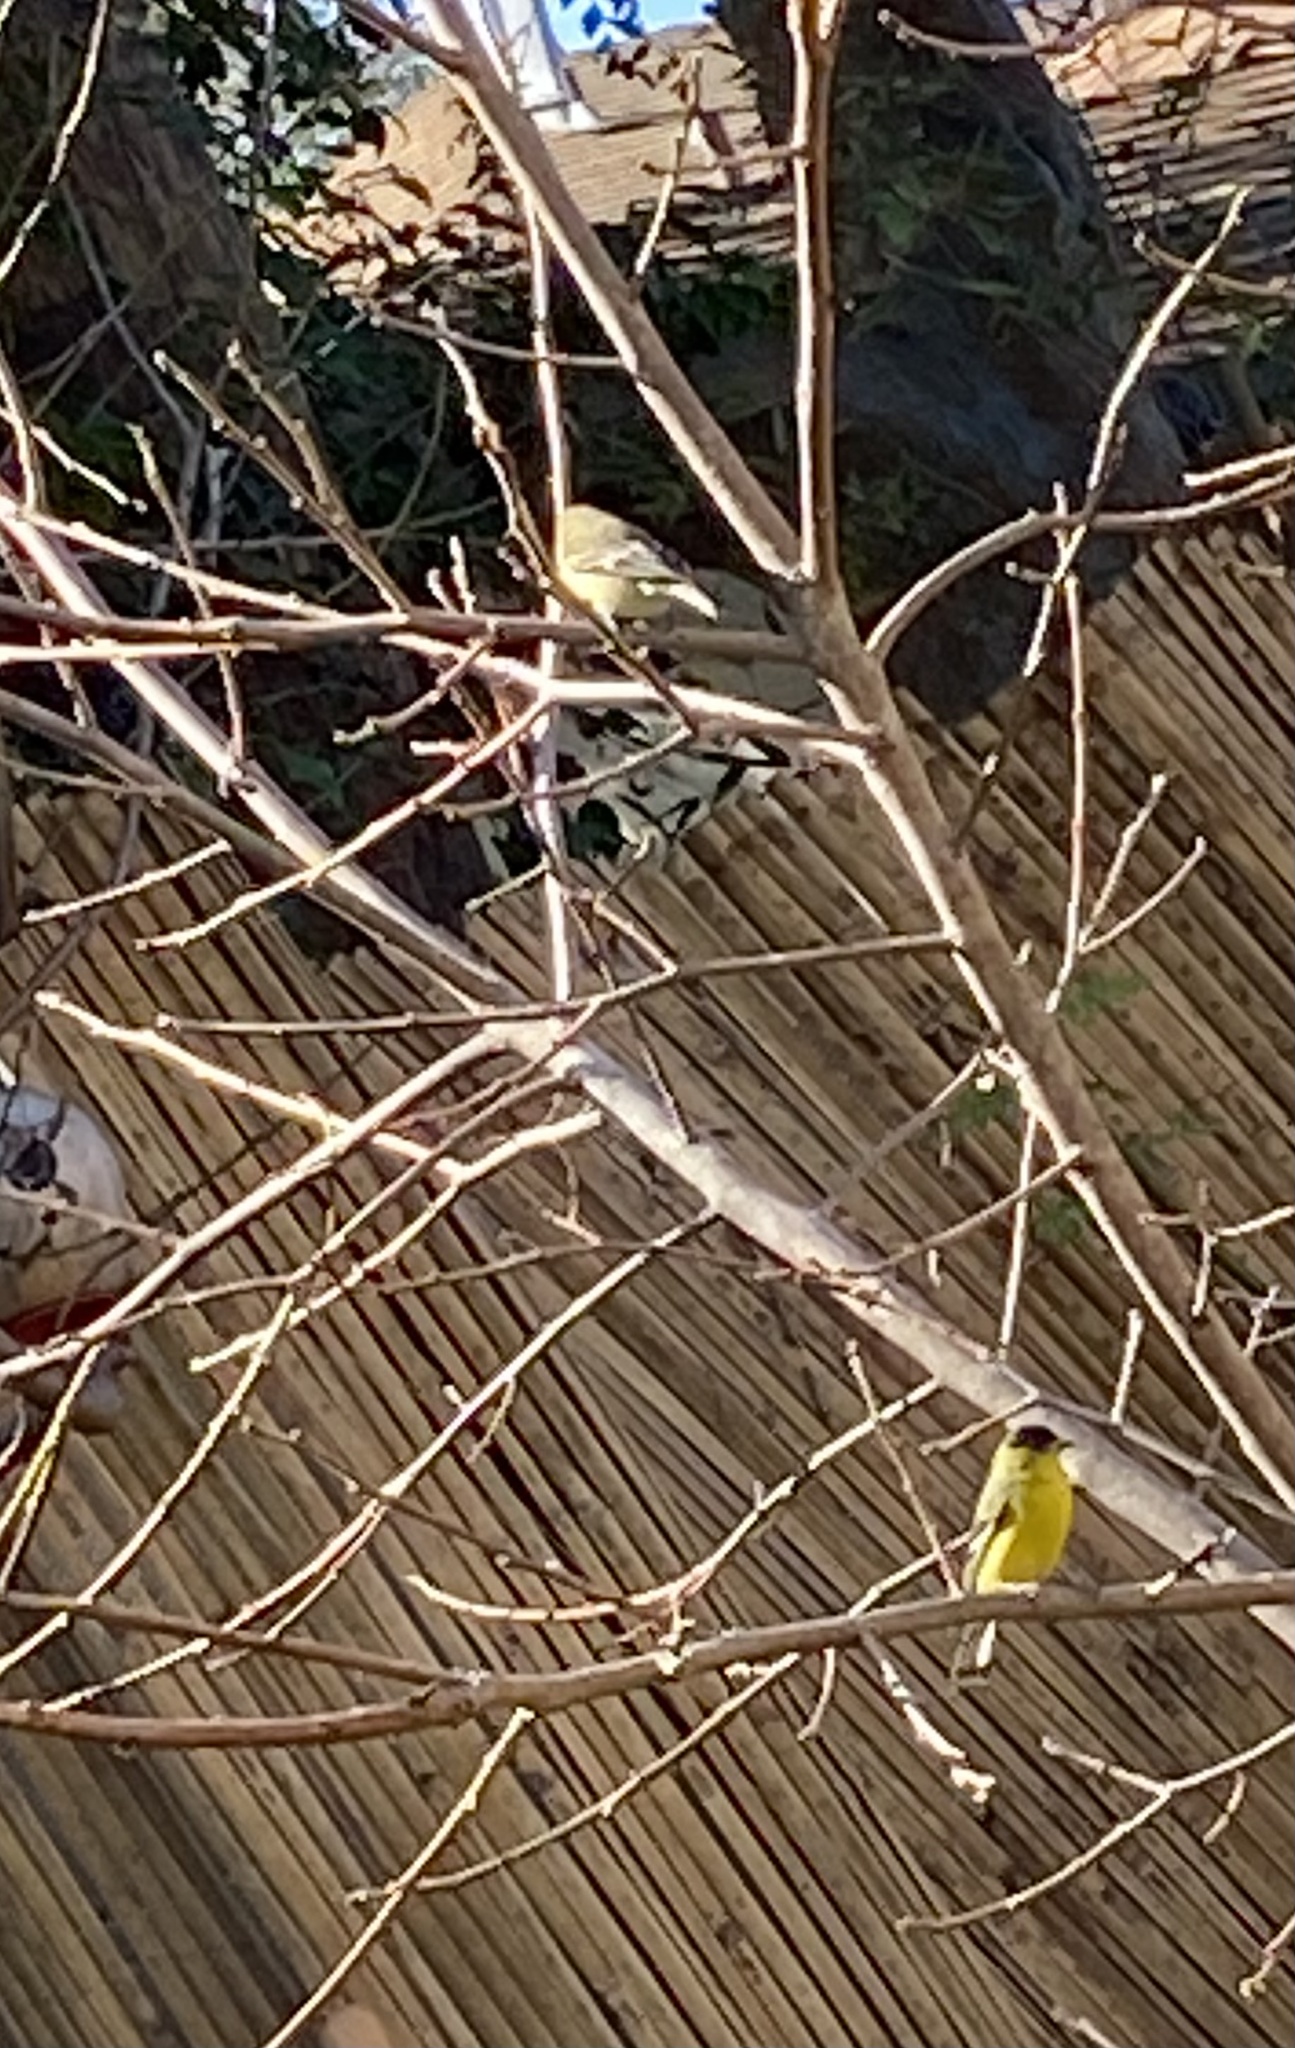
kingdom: Animalia
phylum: Chordata
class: Aves
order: Passeriformes
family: Fringillidae
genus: Spinus
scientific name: Spinus psaltria
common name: Lesser goldfinch
